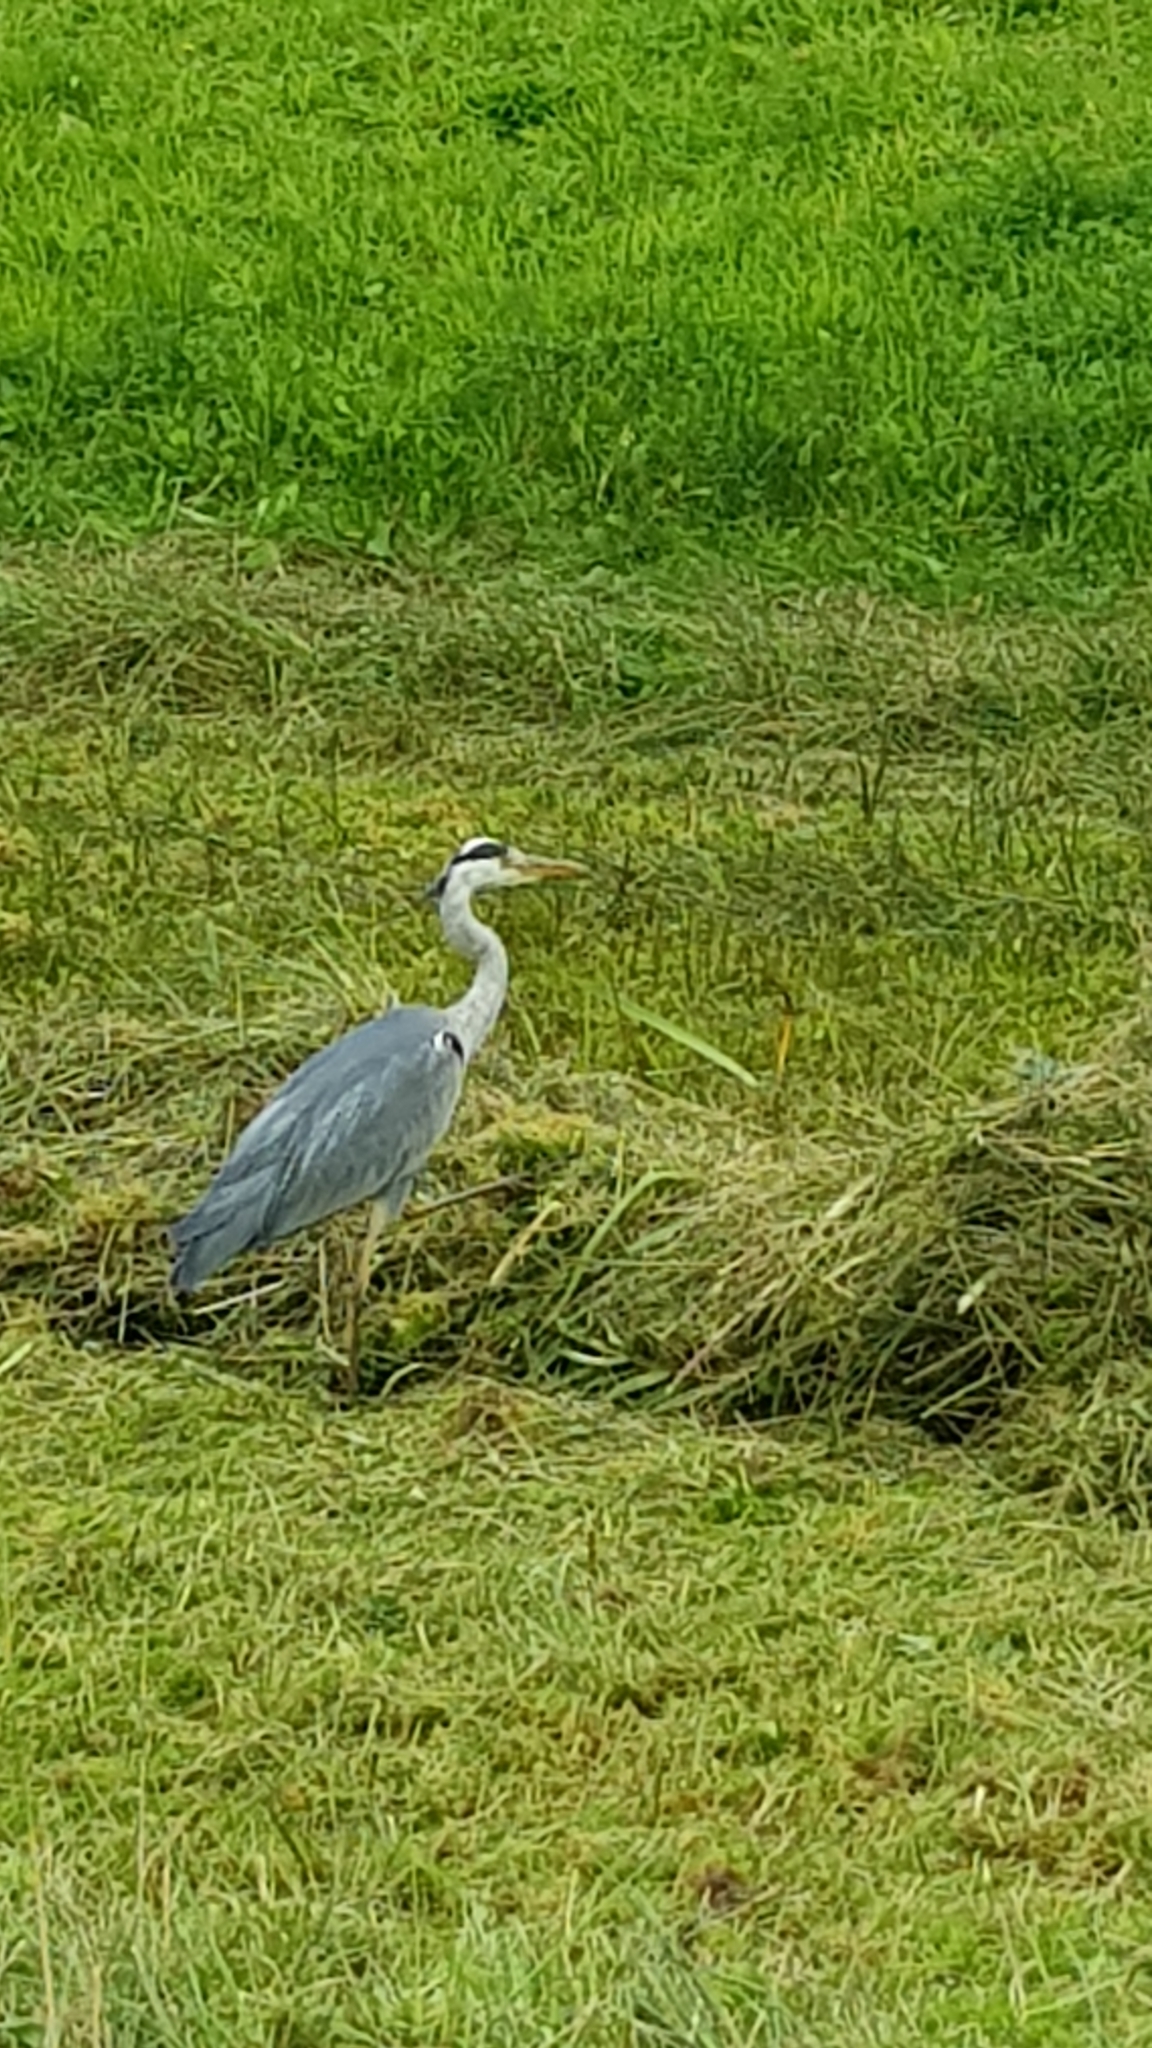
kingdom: Animalia
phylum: Chordata
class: Aves
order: Pelecaniformes
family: Ardeidae
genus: Ardea
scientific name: Ardea cinerea
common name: Grey heron
